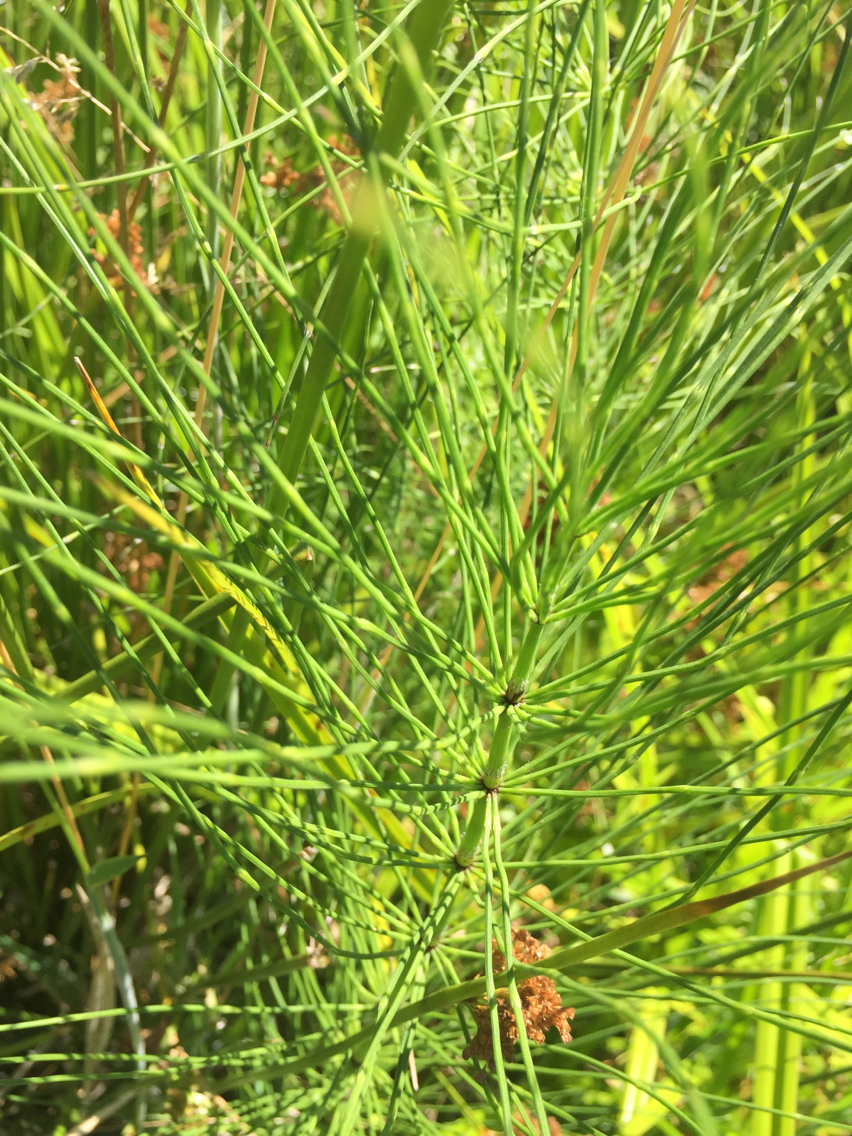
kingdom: Plantae
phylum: Tracheophyta
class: Polypodiopsida
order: Equisetales
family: Equisetaceae
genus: Equisetum
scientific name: Equisetum braunii
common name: Braun's horsetail
